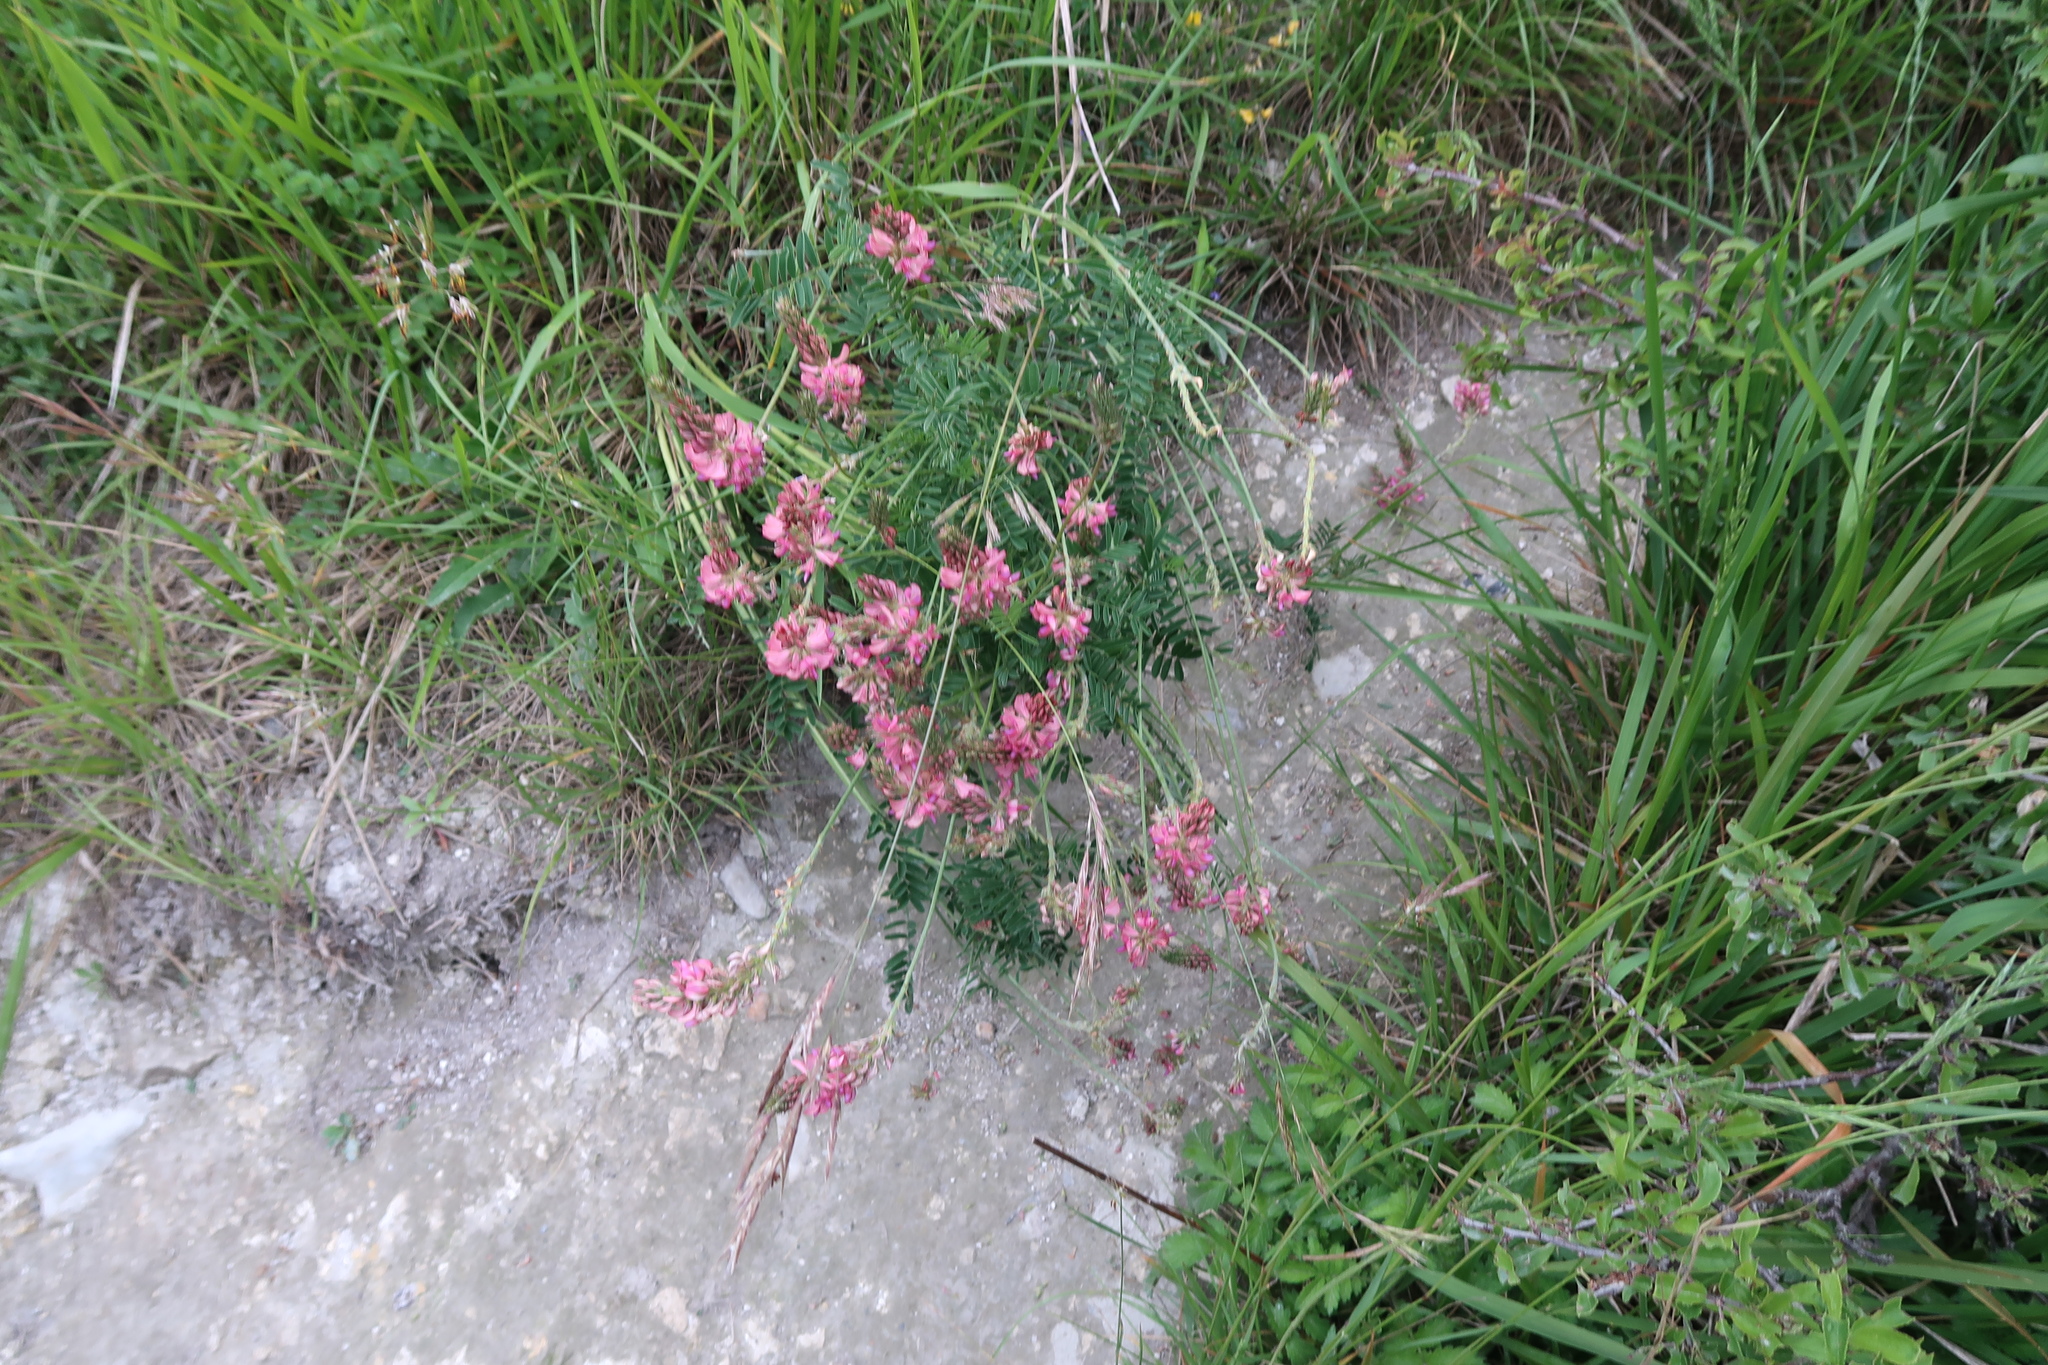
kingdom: Plantae
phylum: Tracheophyta
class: Magnoliopsida
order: Fabales
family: Fabaceae
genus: Onobrychis
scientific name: Onobrychis viciifolia
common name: Sainfoin
